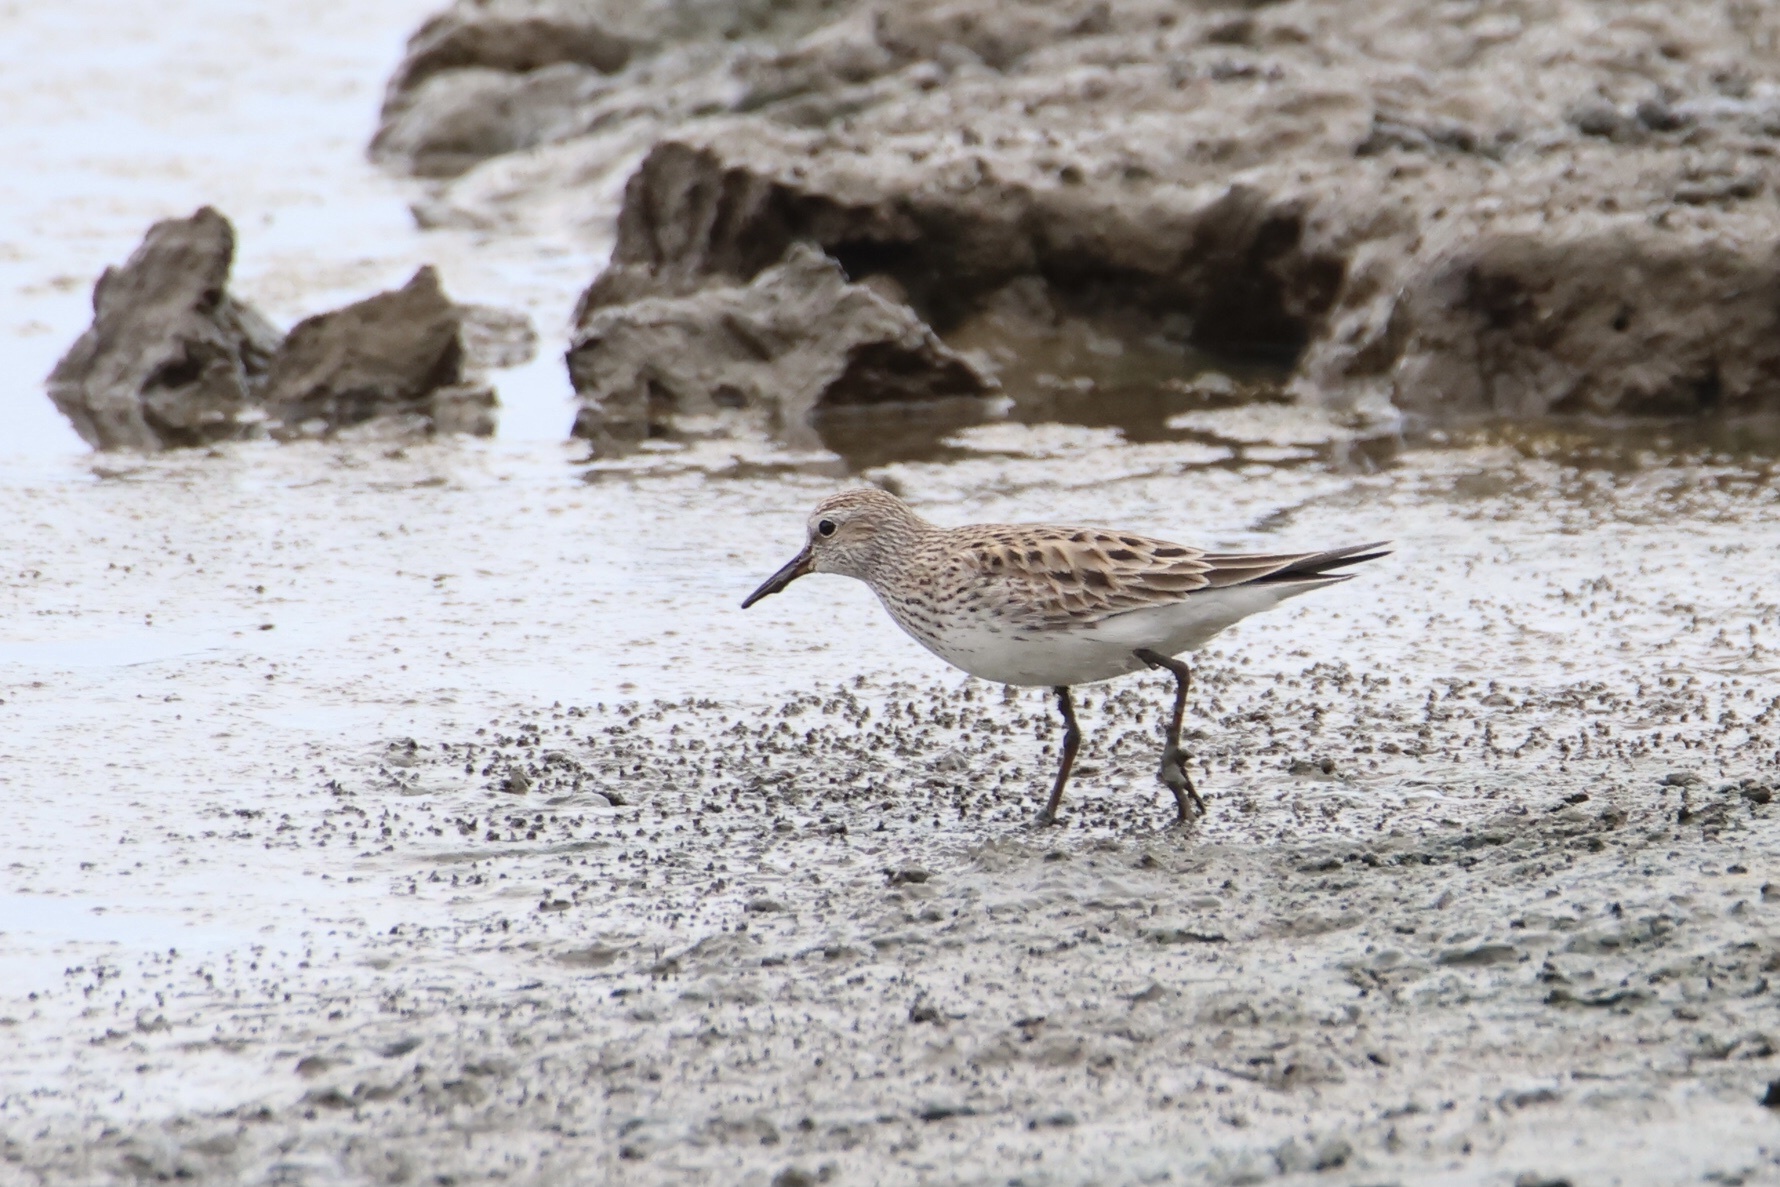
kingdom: Animalia
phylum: Chordata
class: Aves
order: Charadriiformes
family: Scolopacidae
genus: Calidris
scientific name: Calidris fuscicollis
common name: White-rumped sandpiper
